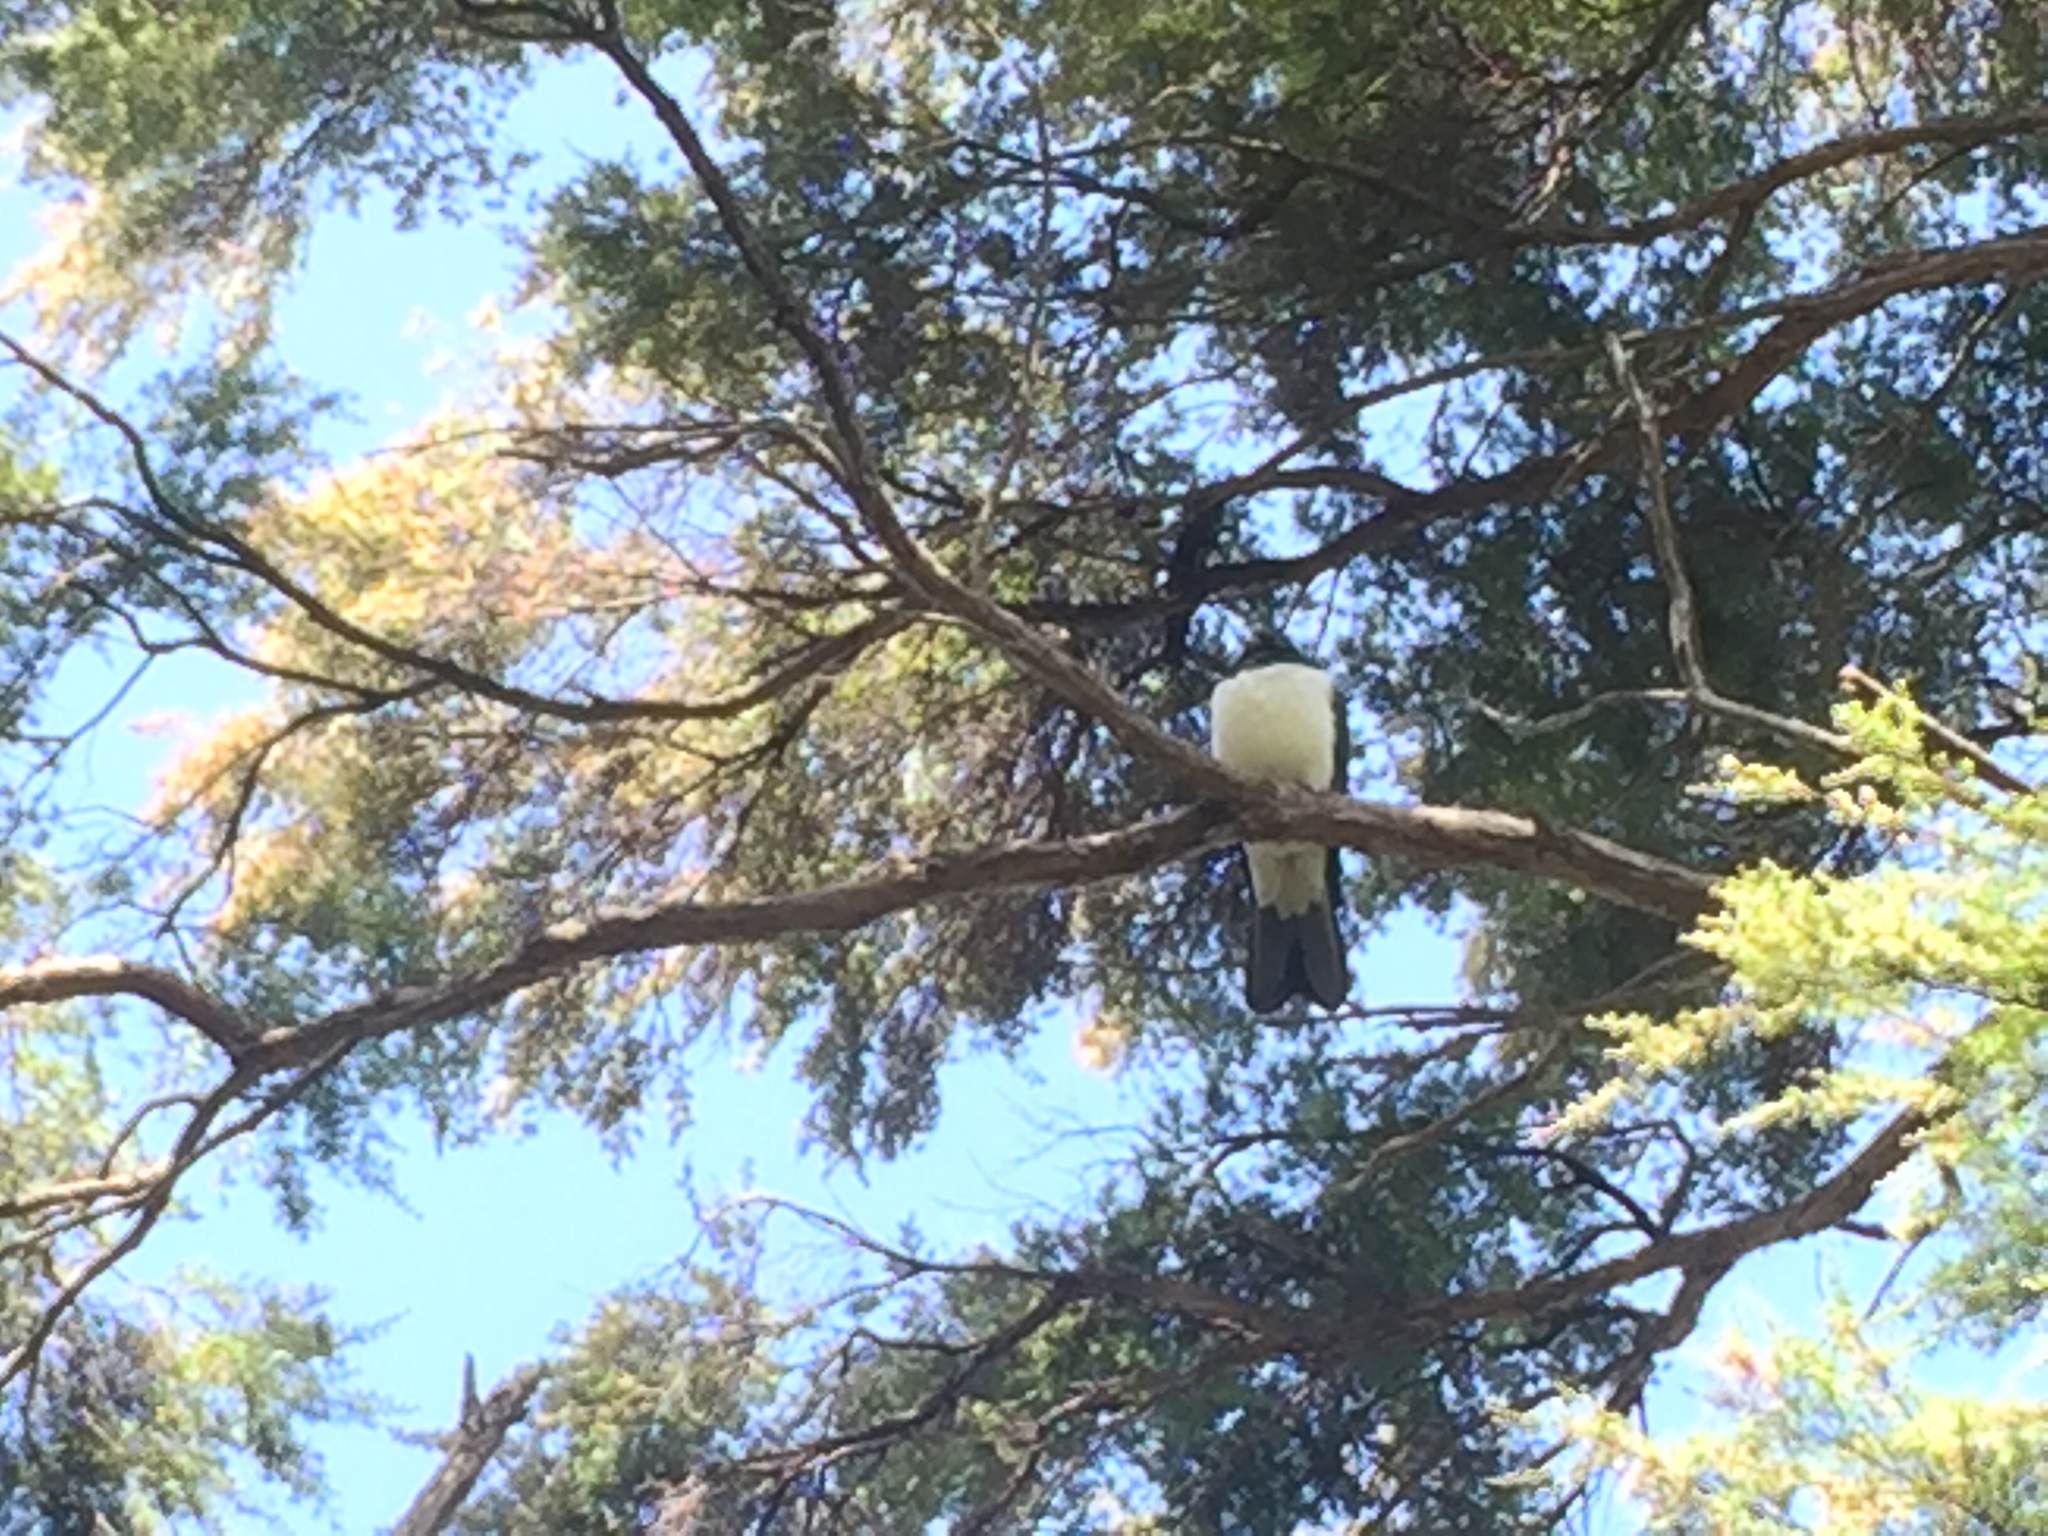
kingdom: Animalia
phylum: Chordata
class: Aves
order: Columbiformes
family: Columbidae
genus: Hemiphaga
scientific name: Hemiphaga novaeseelandiae
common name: New zealand pigeon
